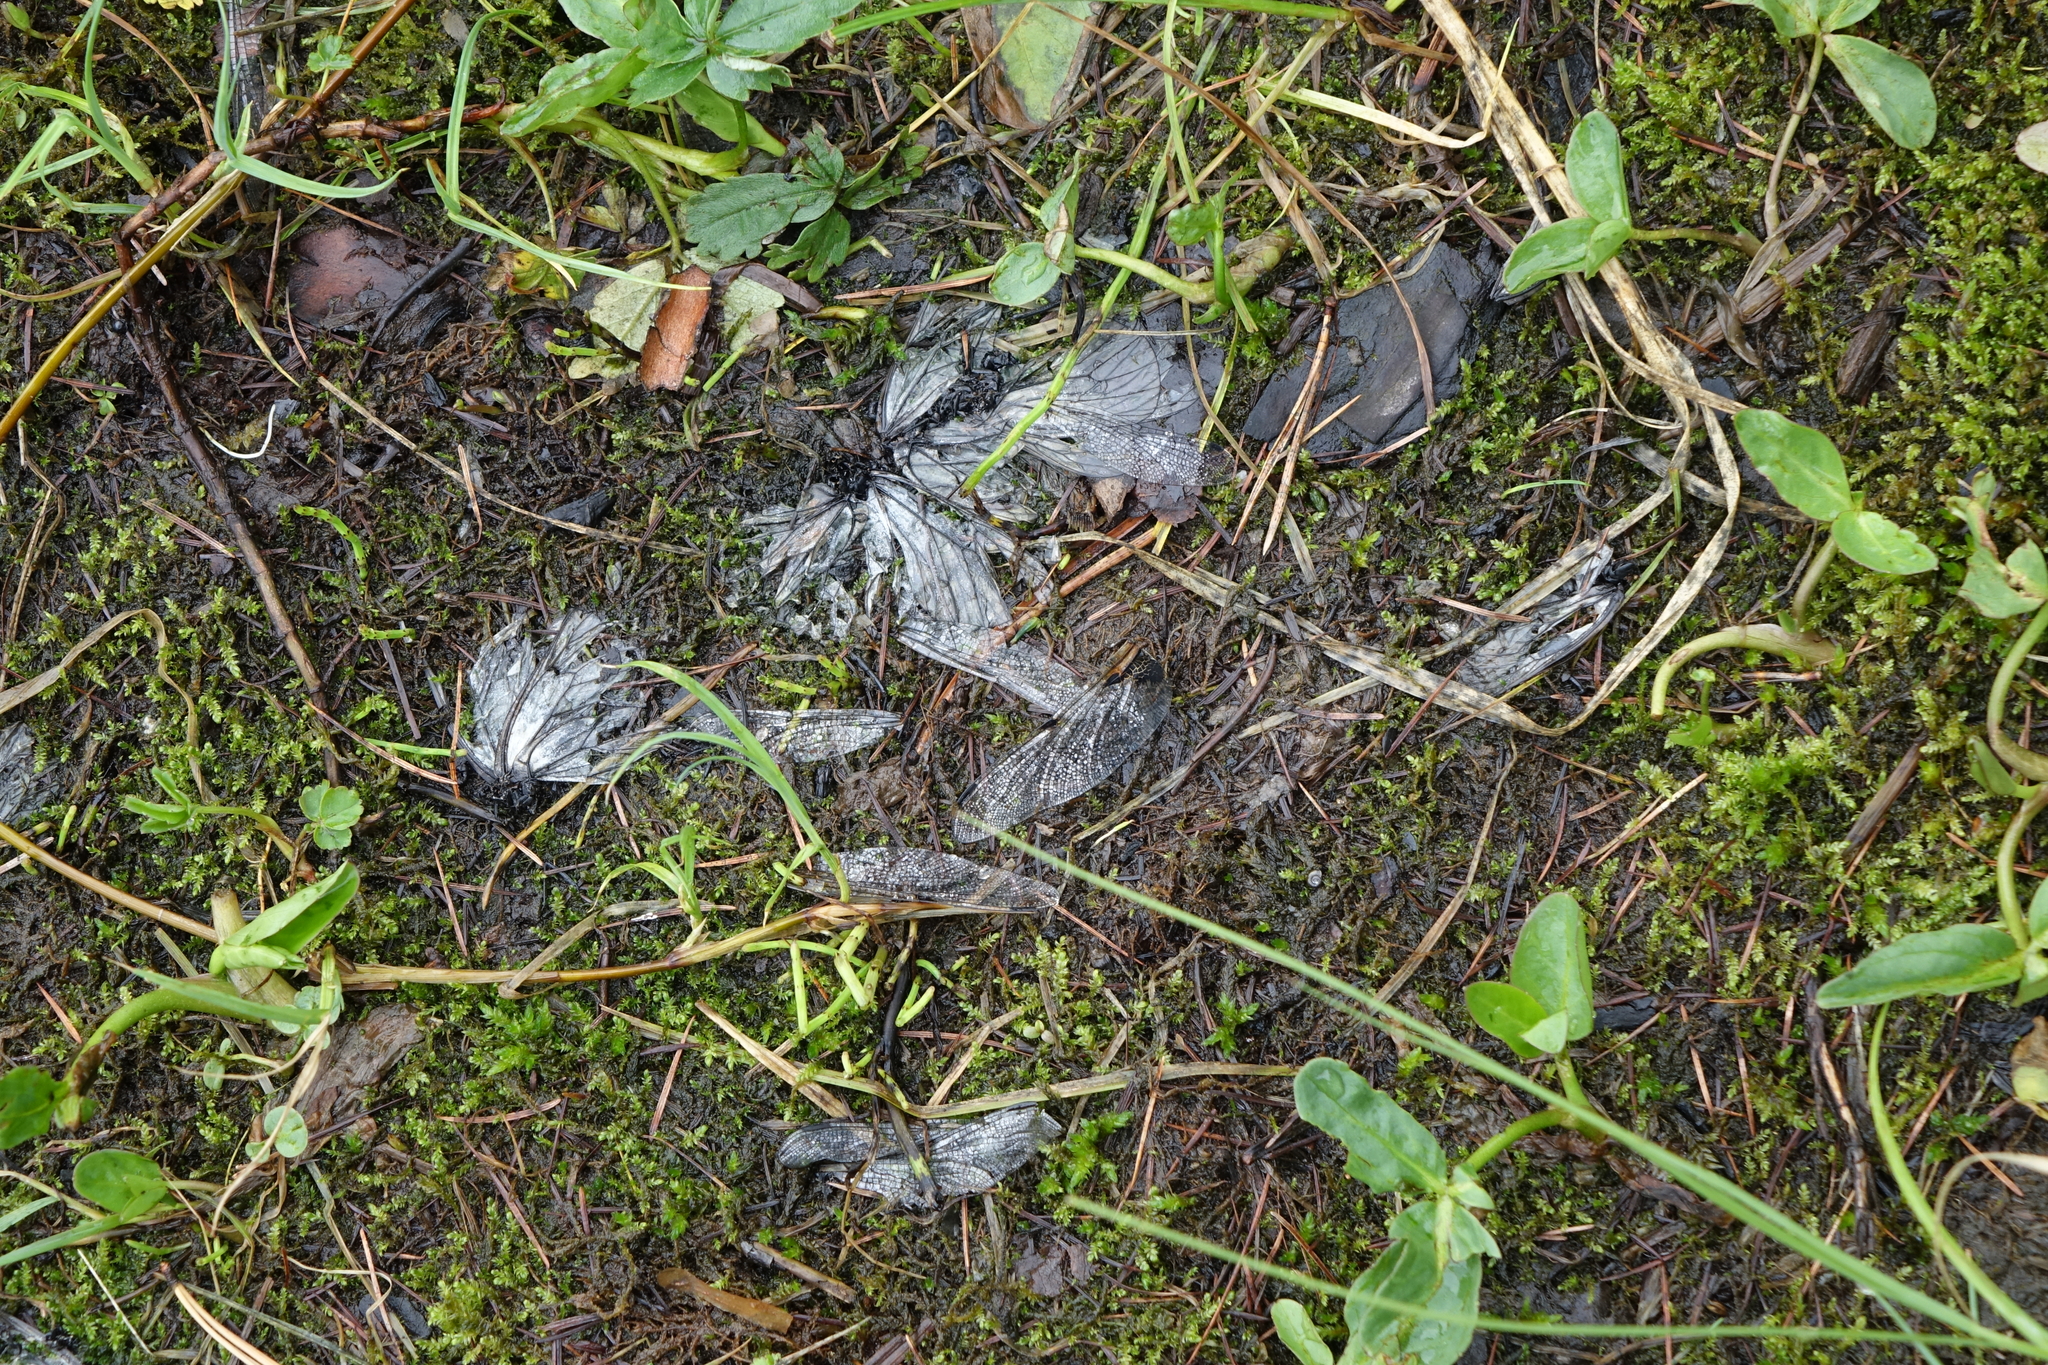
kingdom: Animalia
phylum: Arthropoda
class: Insecta
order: Odonata
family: Libellulidae
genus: Libellula
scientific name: Libellula quadrimaculata
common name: Four-spotted chaser
